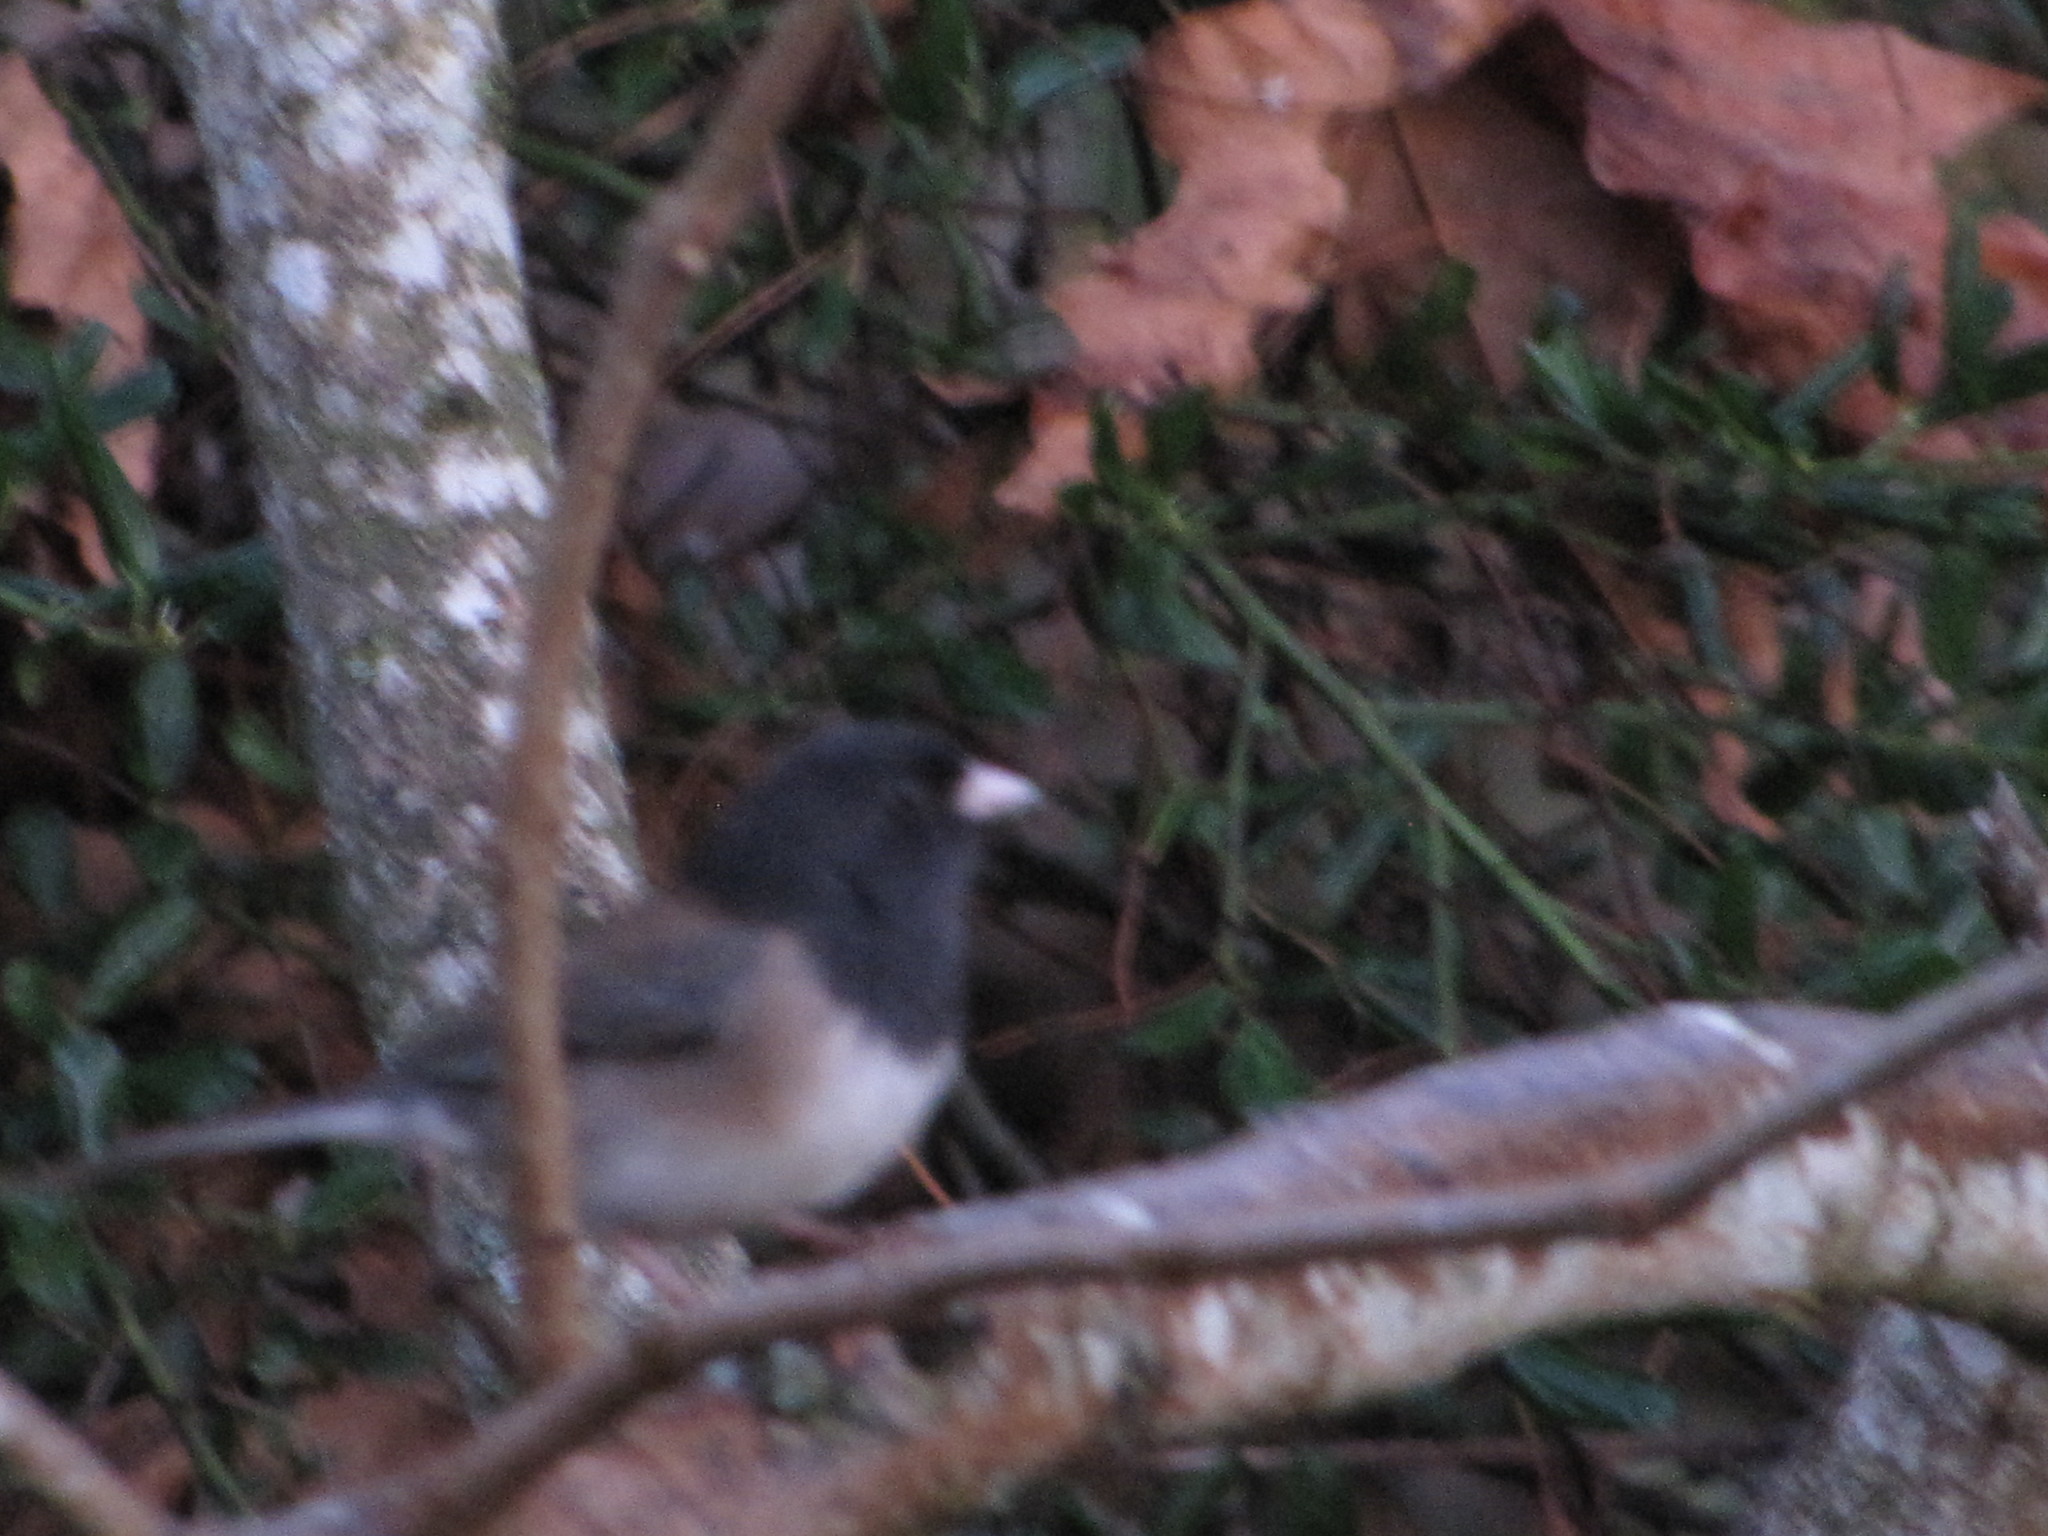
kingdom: Animalia
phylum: Chordata
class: Aves
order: Passeriformes
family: Passerellidae
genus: Junco
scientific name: Junco hyemalis
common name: Dark-eyed junco
